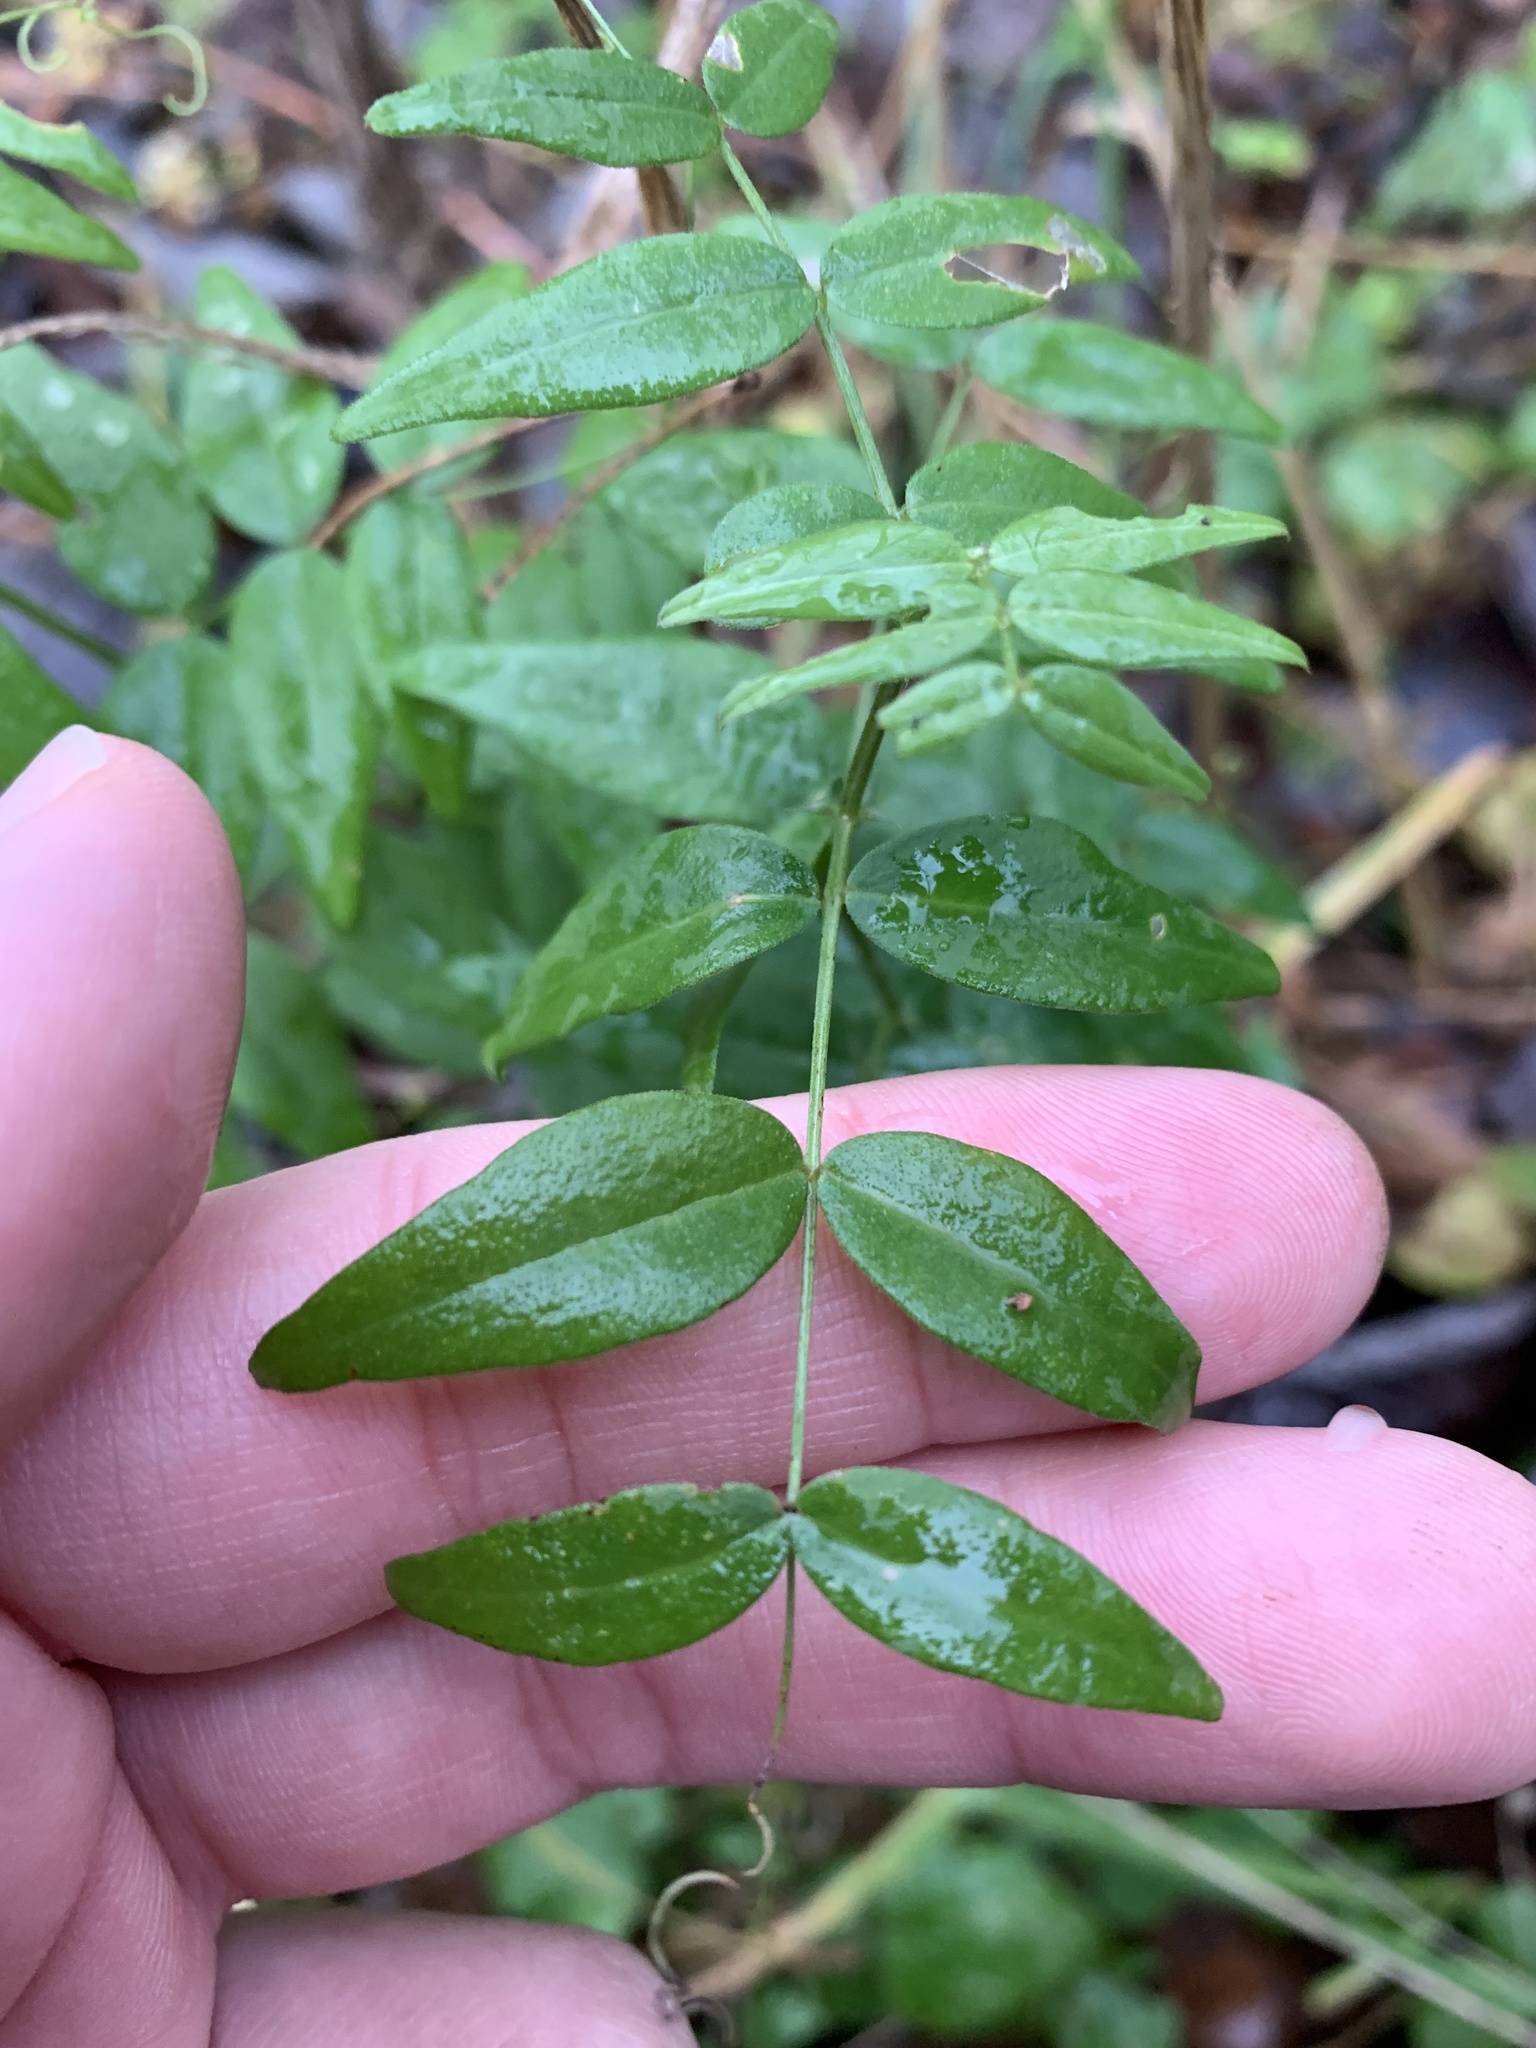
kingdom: Plantae
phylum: Tracheophyta
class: Magnoliopsida
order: Fabales
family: Fabaceae
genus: Vicia
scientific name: Vicia sepium
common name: Bush vetch
